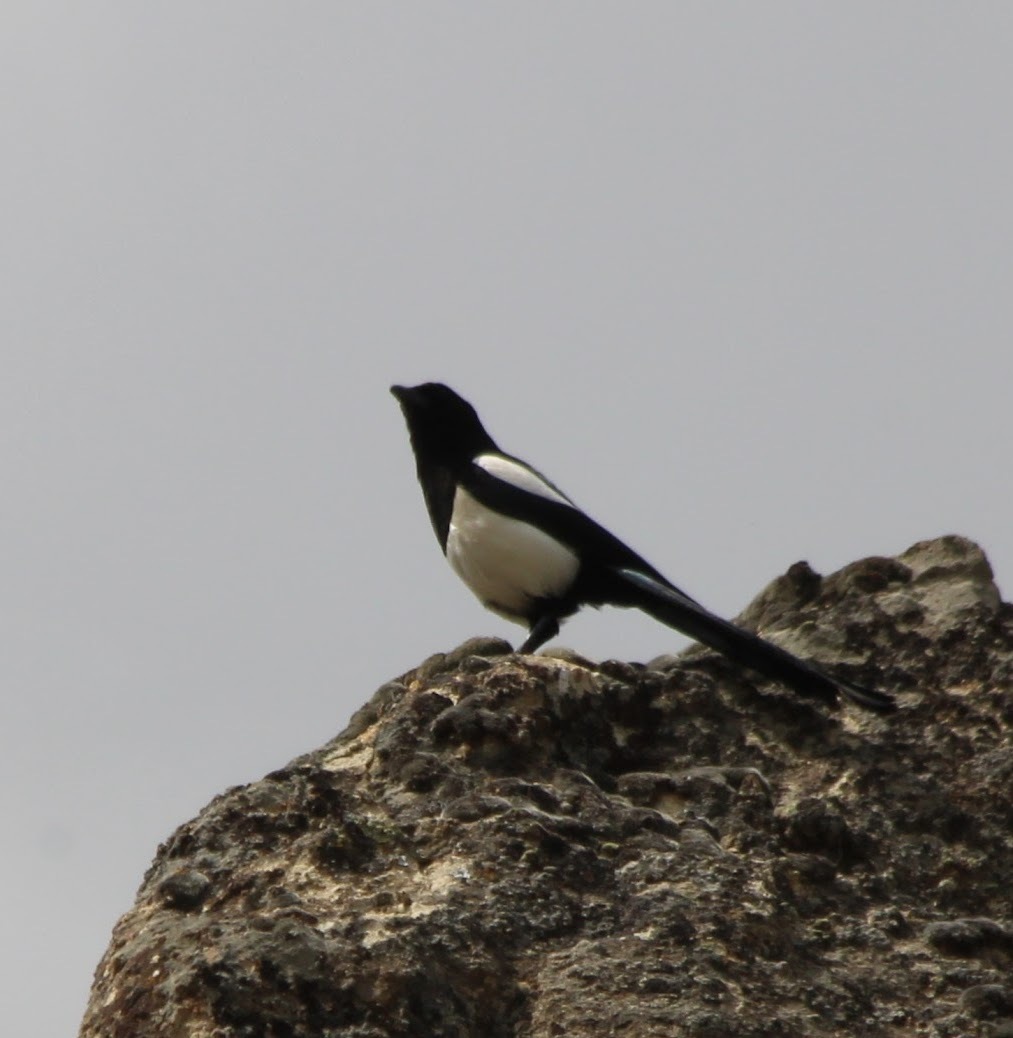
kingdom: Animalia
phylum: Chordata
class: Aves
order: Passeriformes
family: Corvidae
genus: Pica
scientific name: Pica pica
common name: Eurasian magpie
